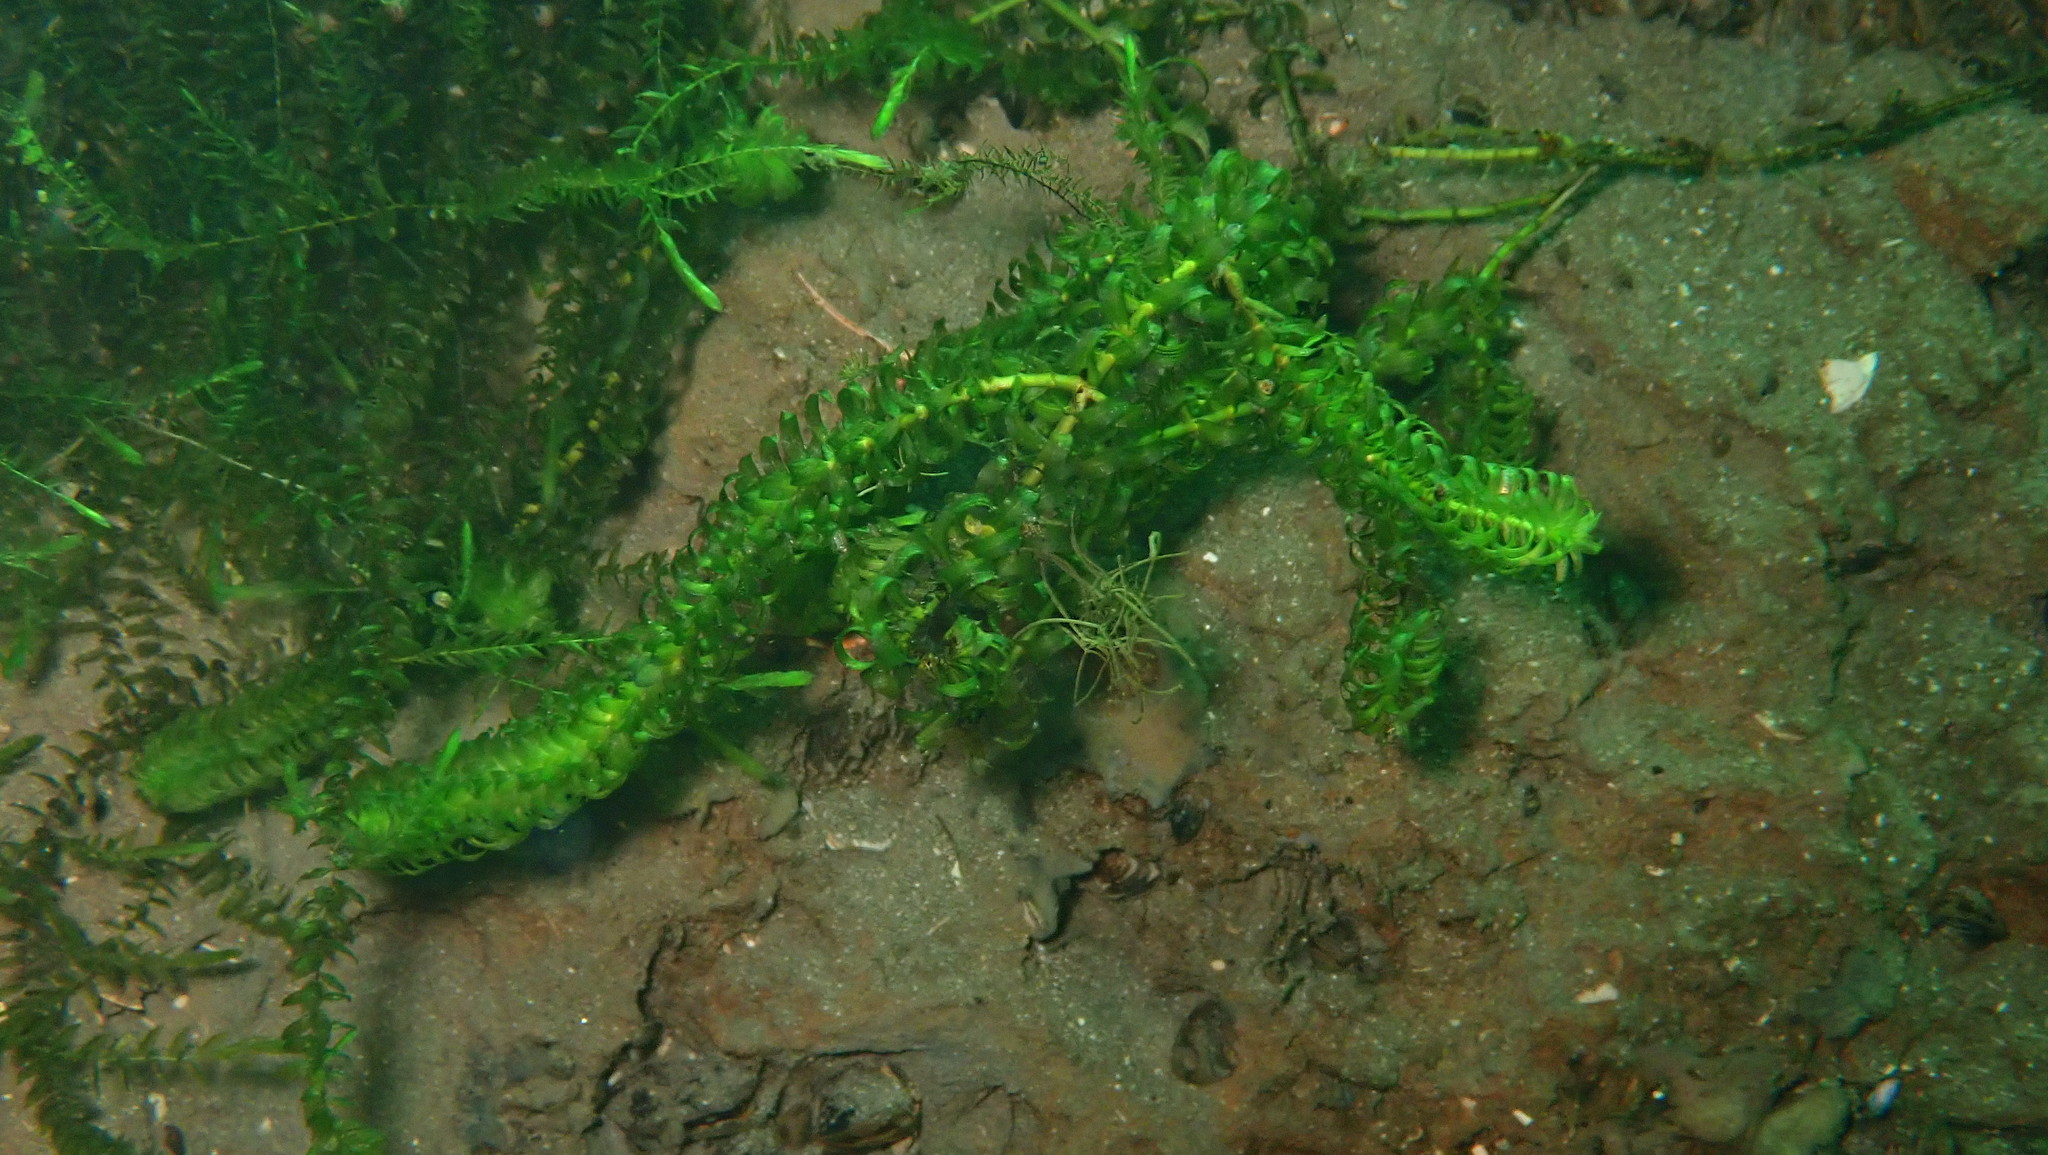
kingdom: Plantae
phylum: Tracheophyta
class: Liliopsida
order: Alismatales
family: Hydrocharitaceae
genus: Elodea
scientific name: Elodea canadensis
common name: Canadian waterweed
